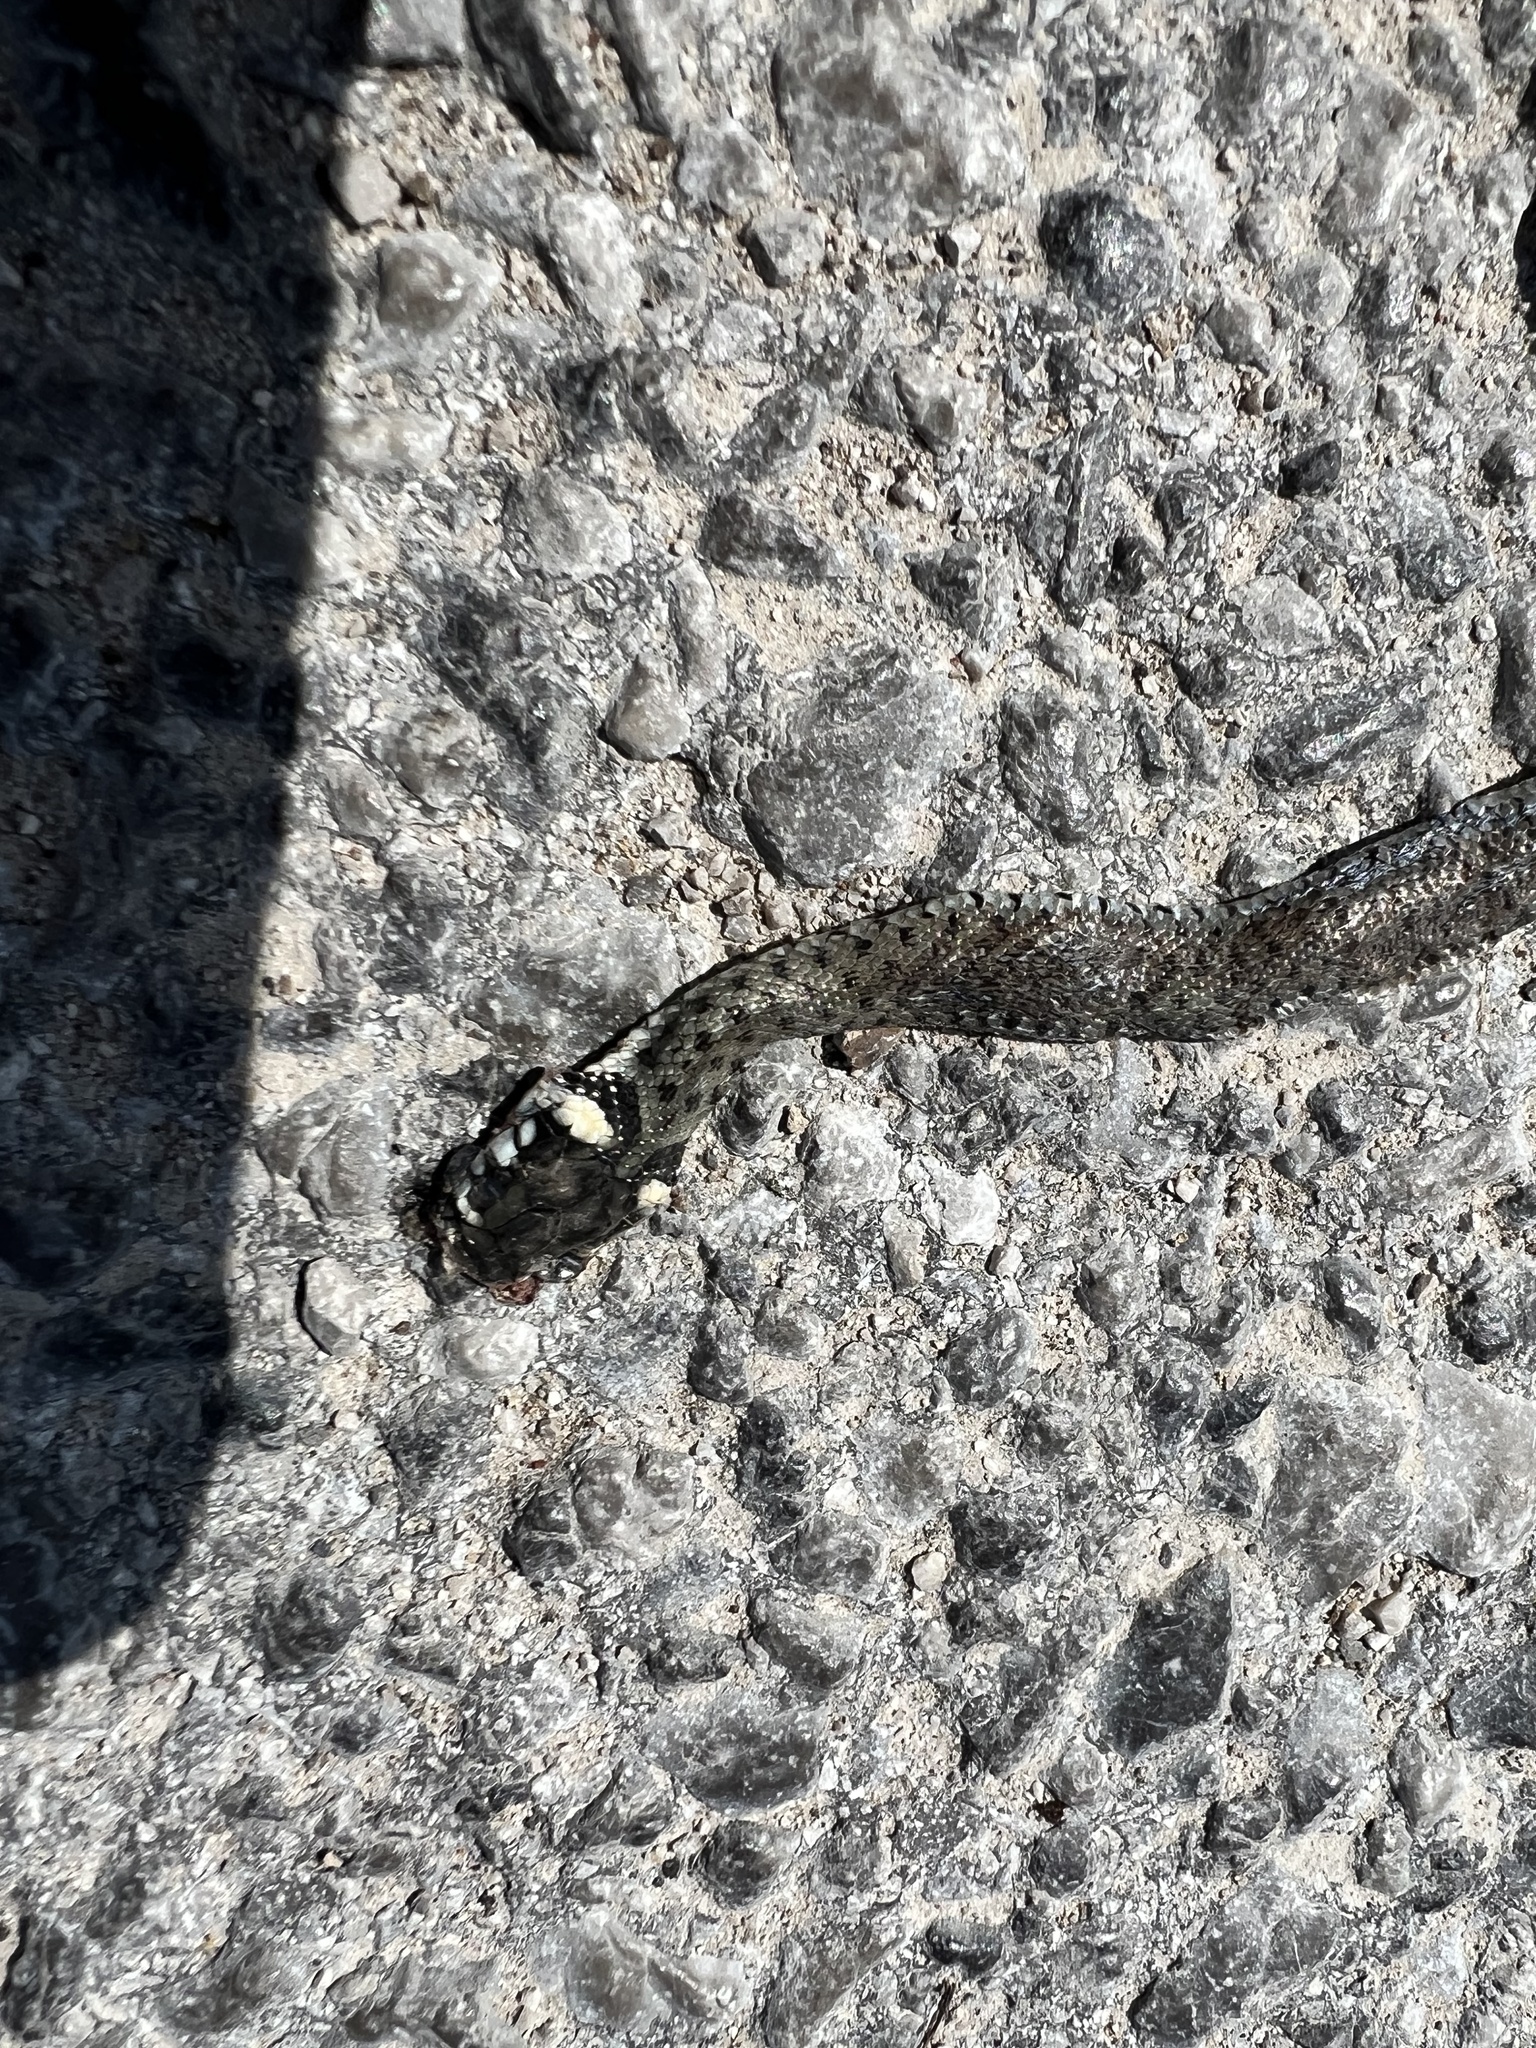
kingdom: Animalia
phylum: Chordata
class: Squamata
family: Colubridae
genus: Natrix
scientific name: Natrix natrix
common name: Grass snake
